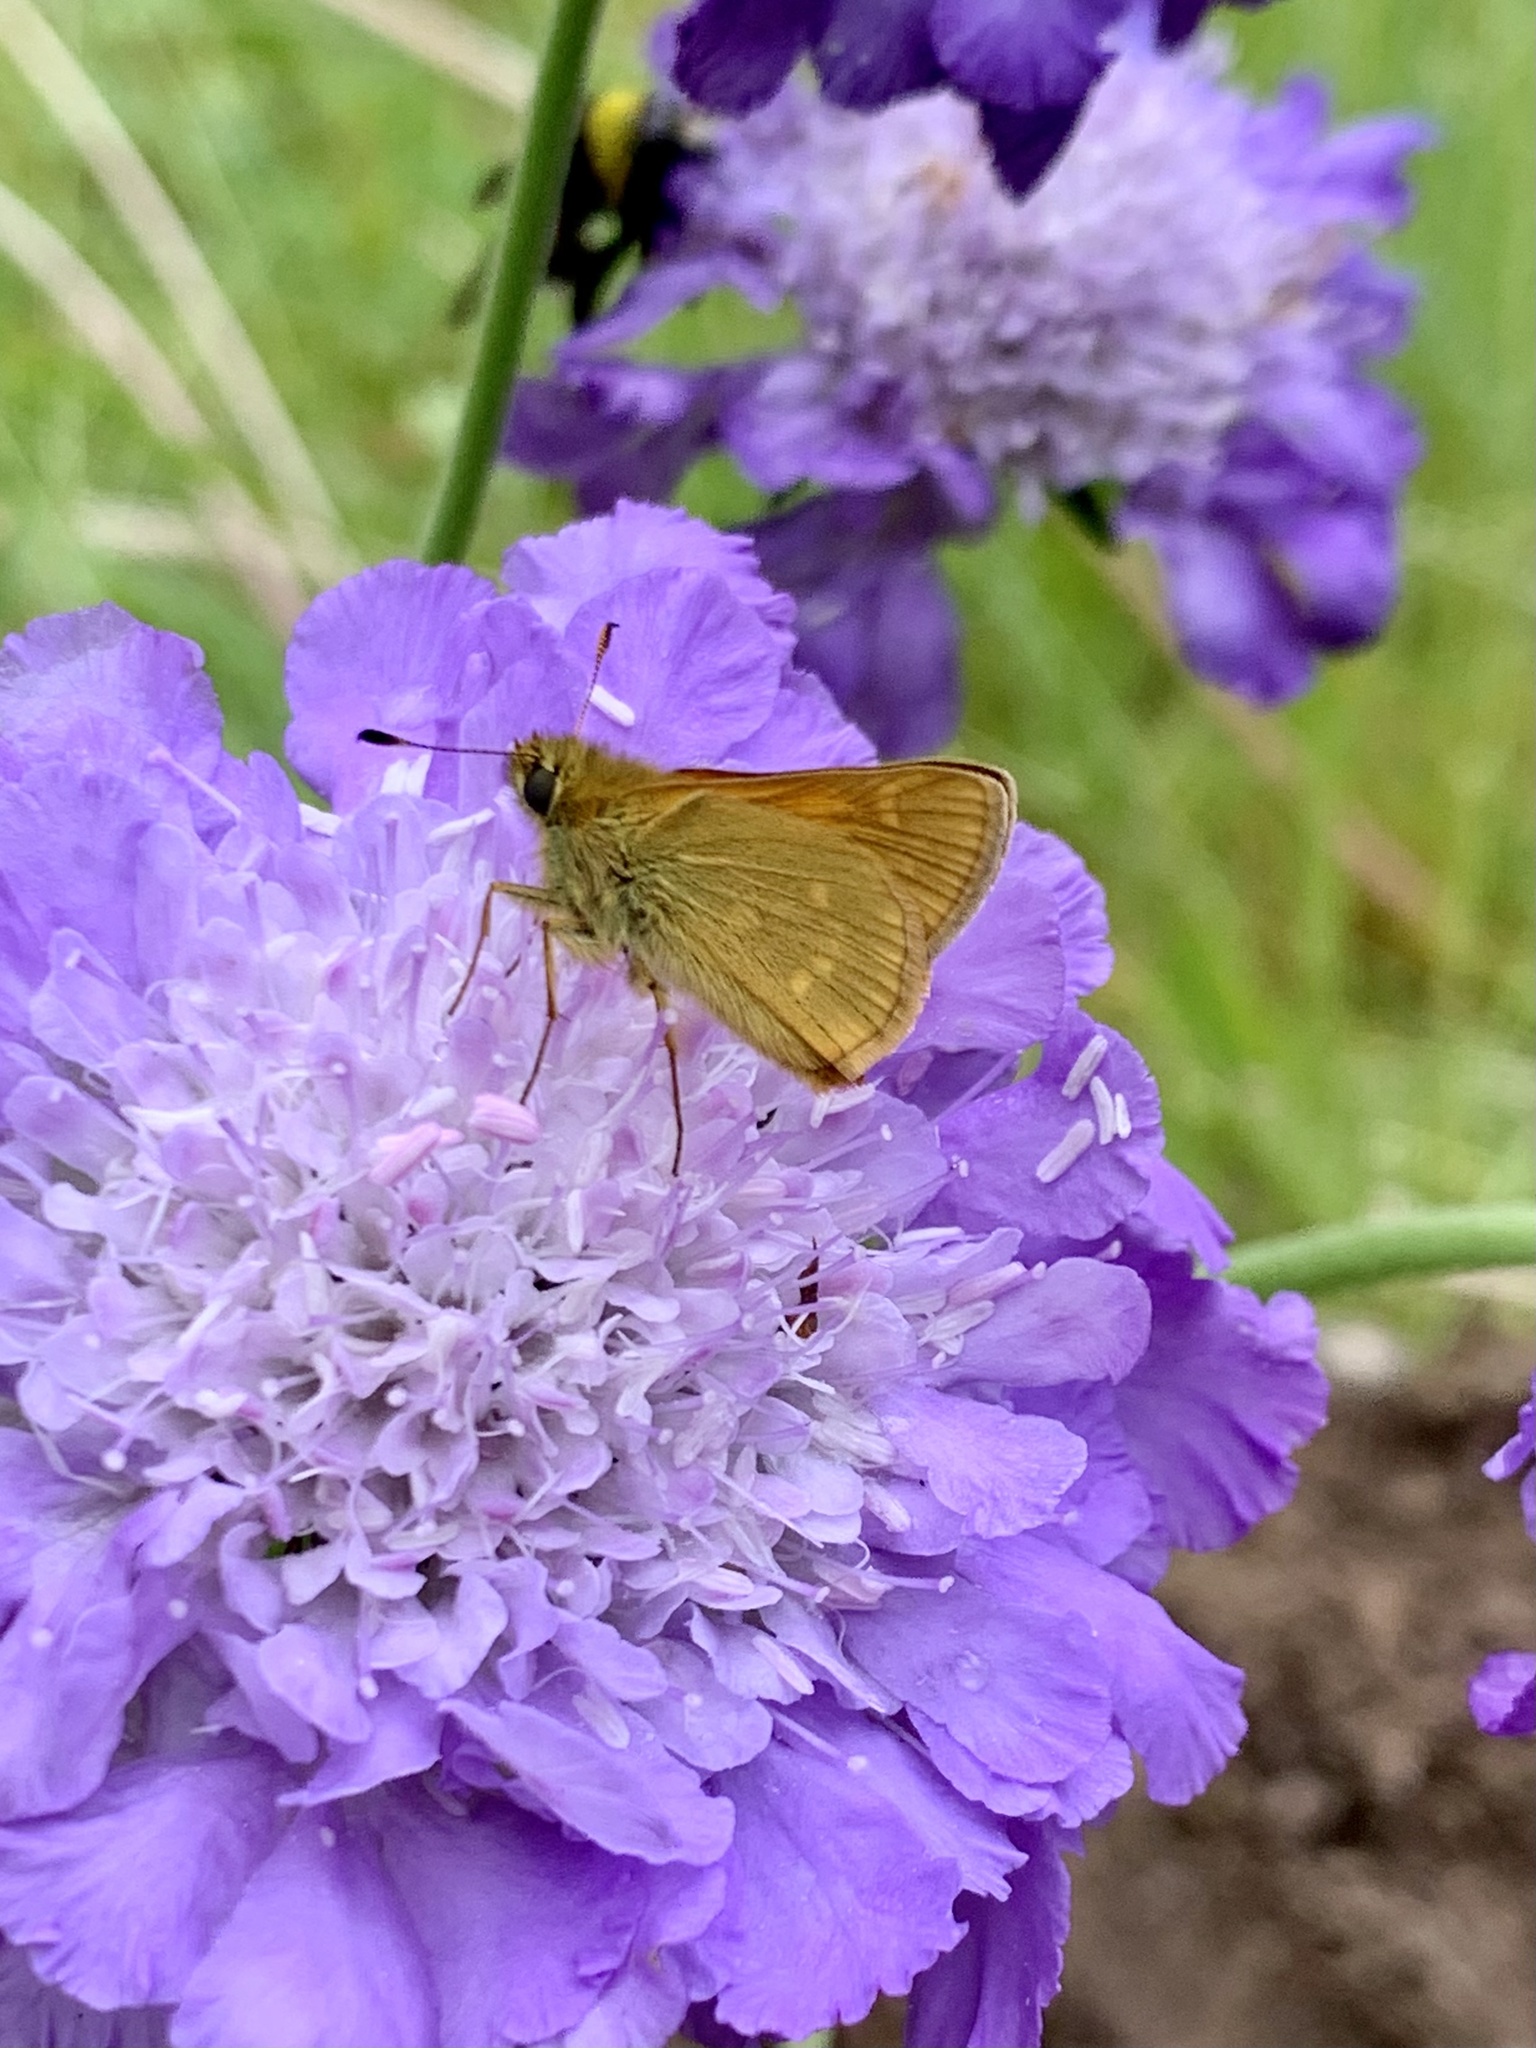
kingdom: Animalia
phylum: Arthropoda
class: Insecta
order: Lepidoptera
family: Hesperiidae
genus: Ochlodes
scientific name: Ochlodes venata
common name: Large skipper
